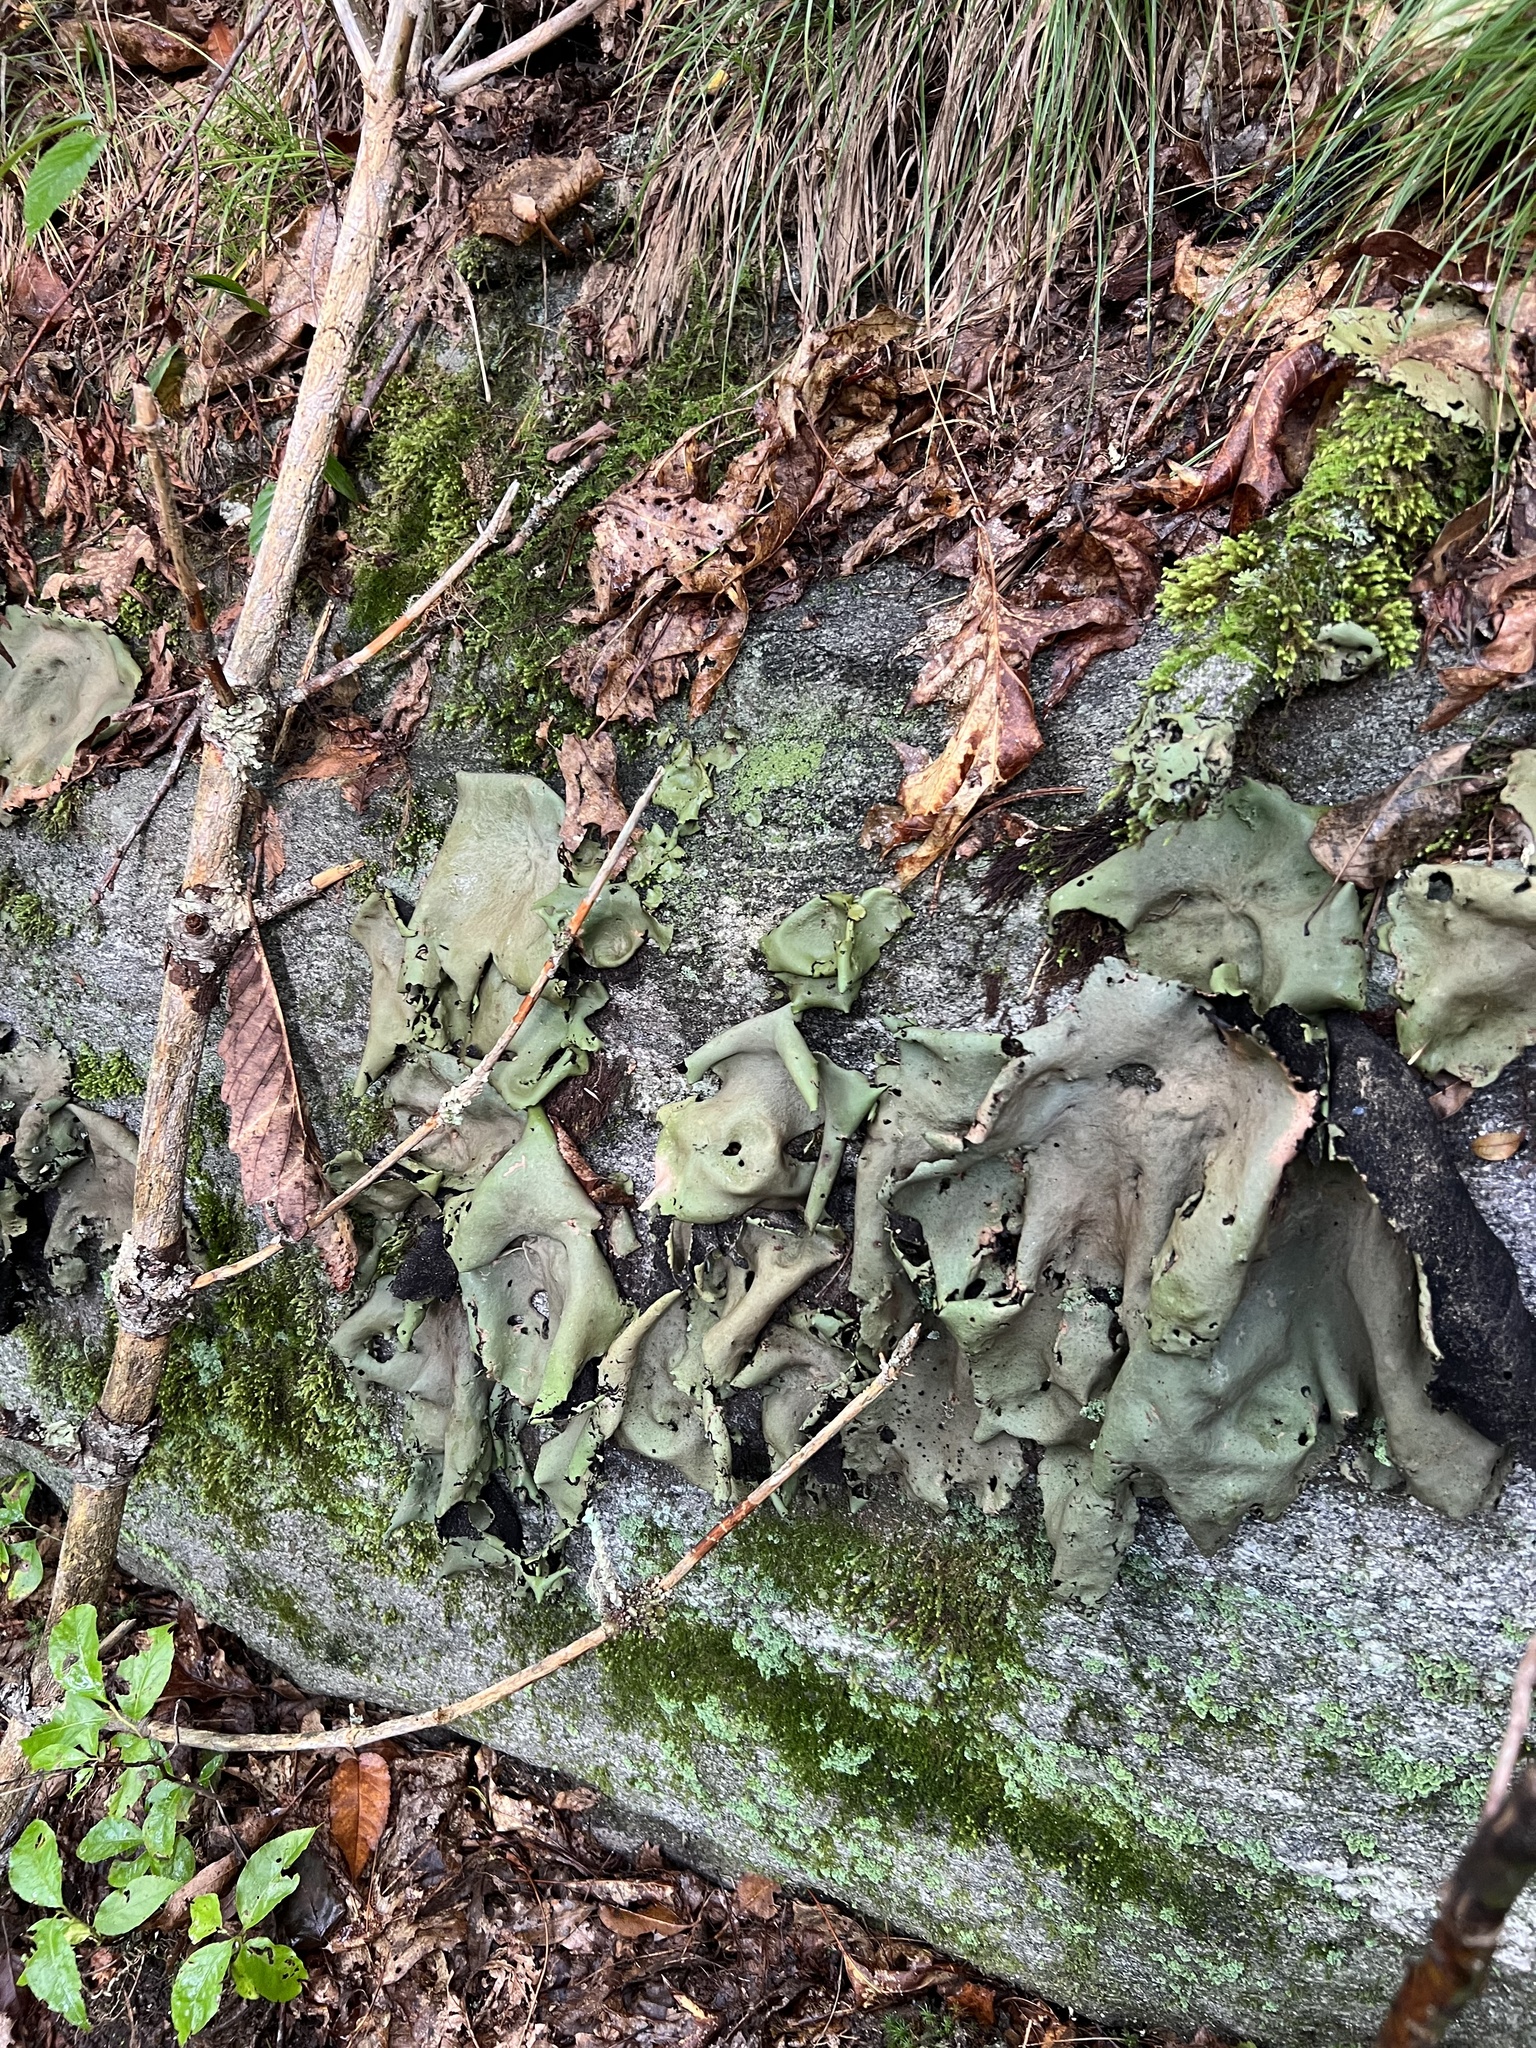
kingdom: Fungi
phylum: Ascomycota
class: Lecanoromycetes
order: Umbilicariales
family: Umbilicariaceae
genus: Umbilicaria
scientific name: Umbilicaria mammulata
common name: Smooth rock tripe
